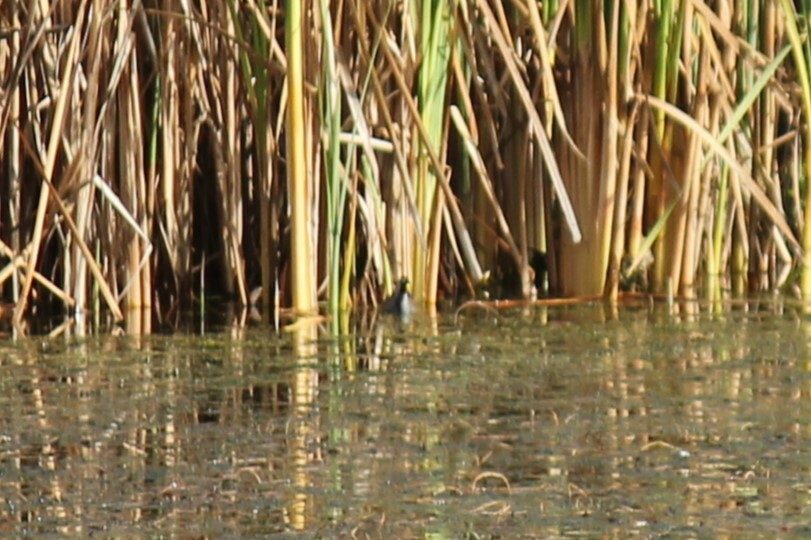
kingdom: Animalia
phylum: Chordata
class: Aves
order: Gruiformes
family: Rallidae
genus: Porzana
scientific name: Porzana carolina
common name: Sora
